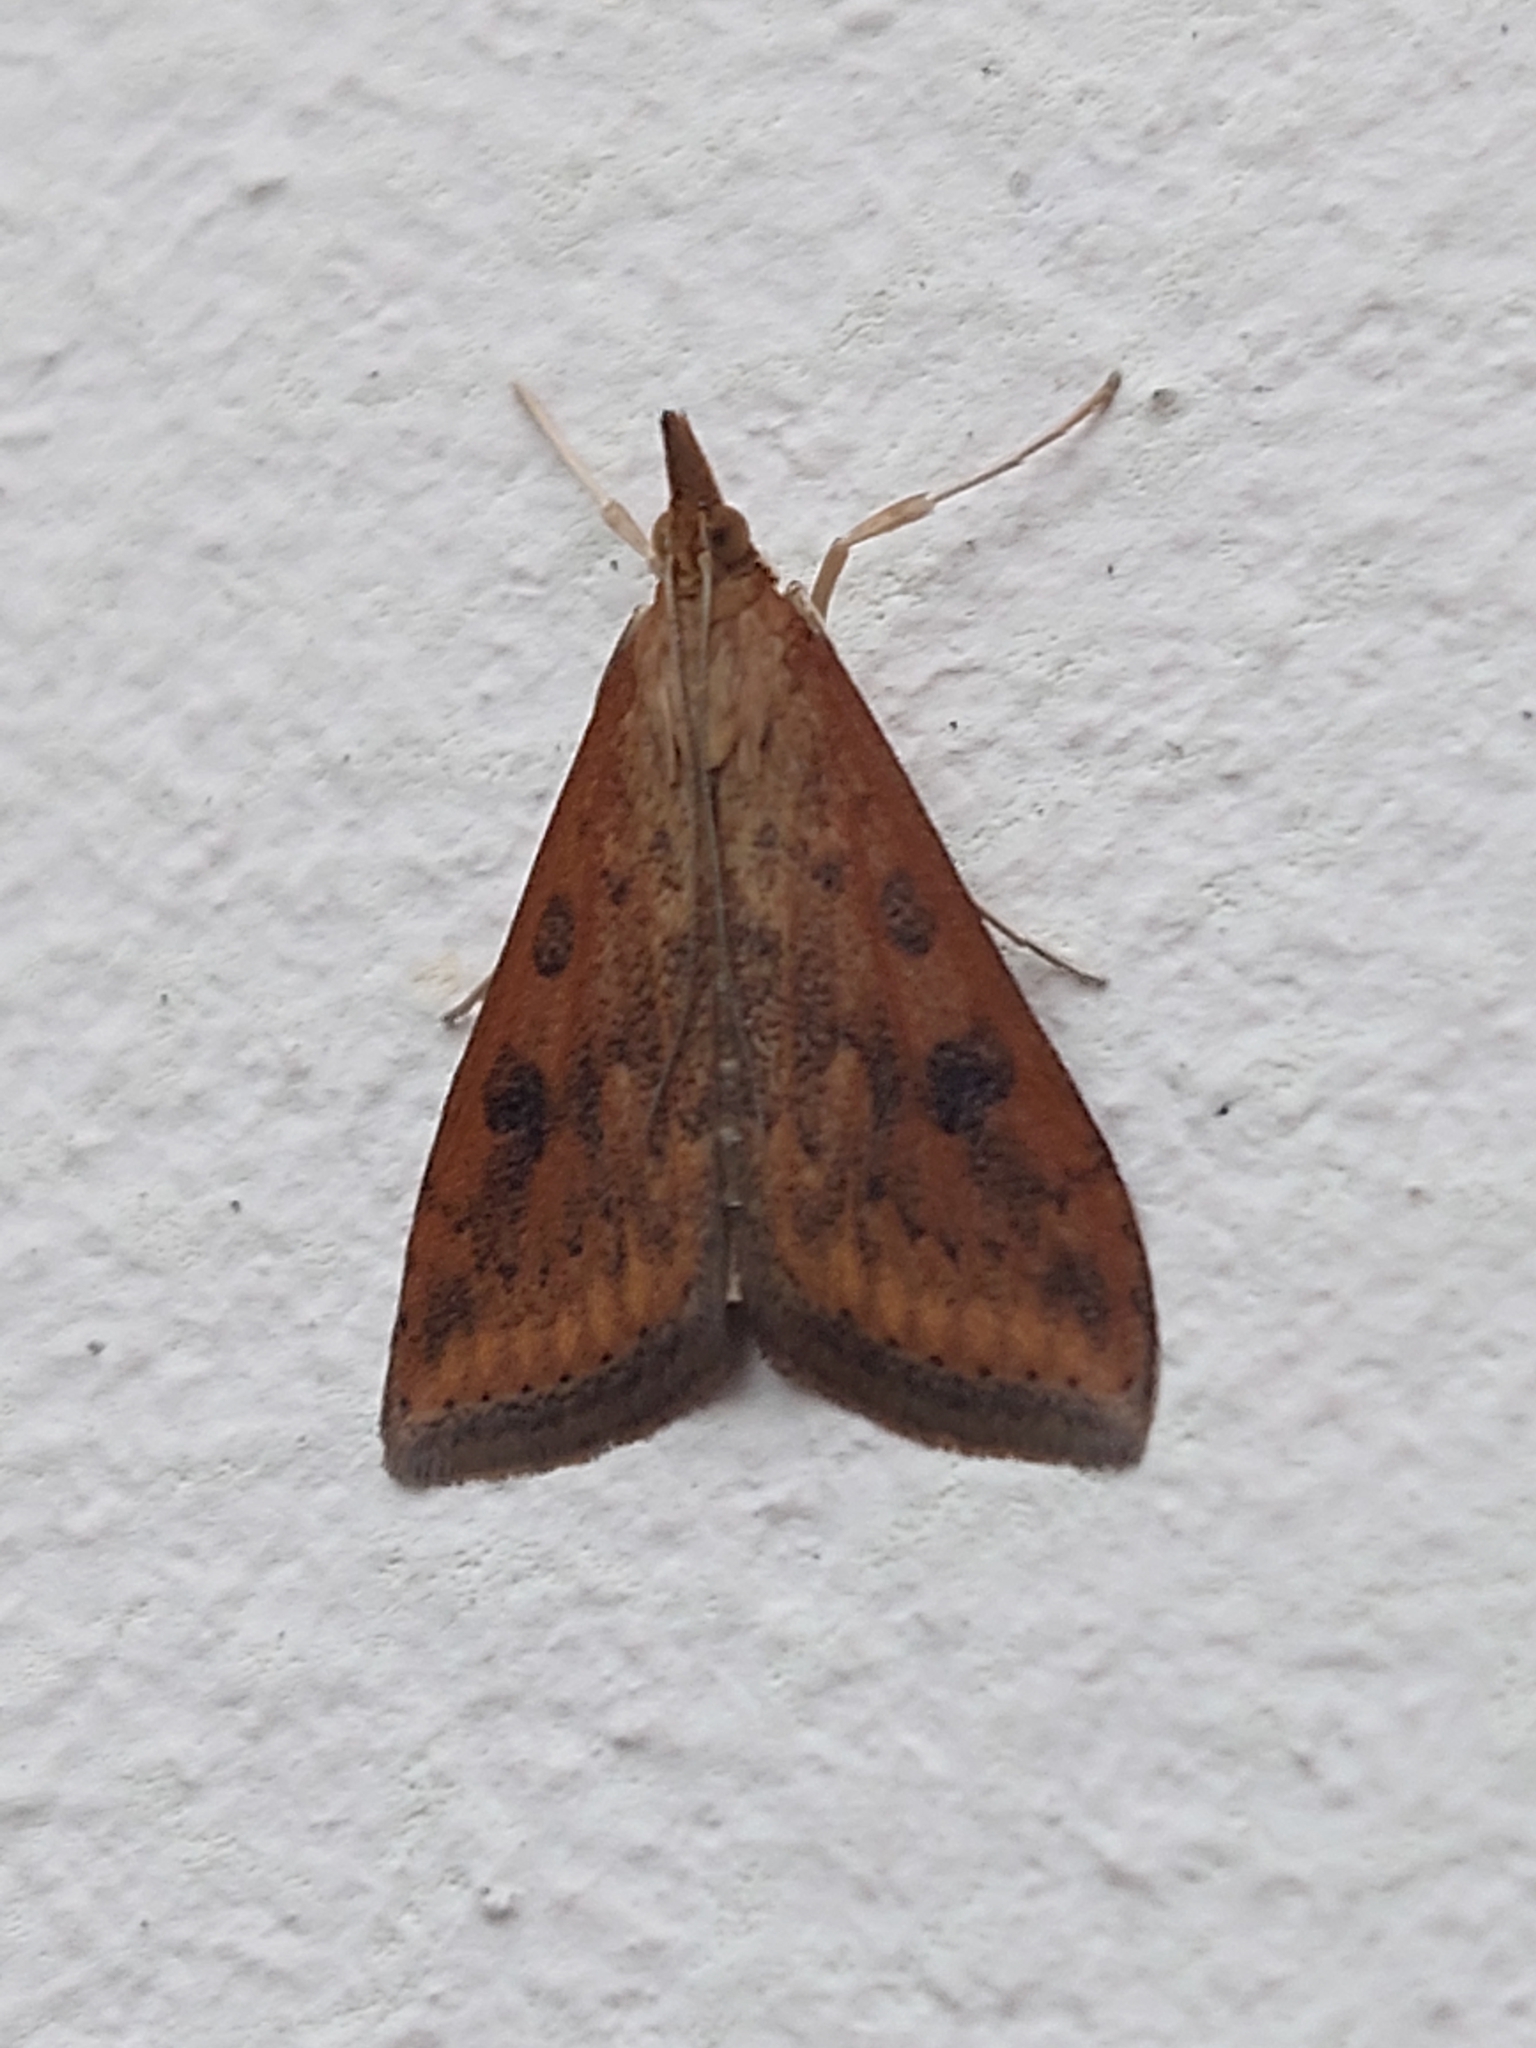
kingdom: Animalia
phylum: Arthropoda
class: Insecta
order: Lepidoptera
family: Crambidae
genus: Udea
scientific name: Udea ferrugalis
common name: Rusty dot
